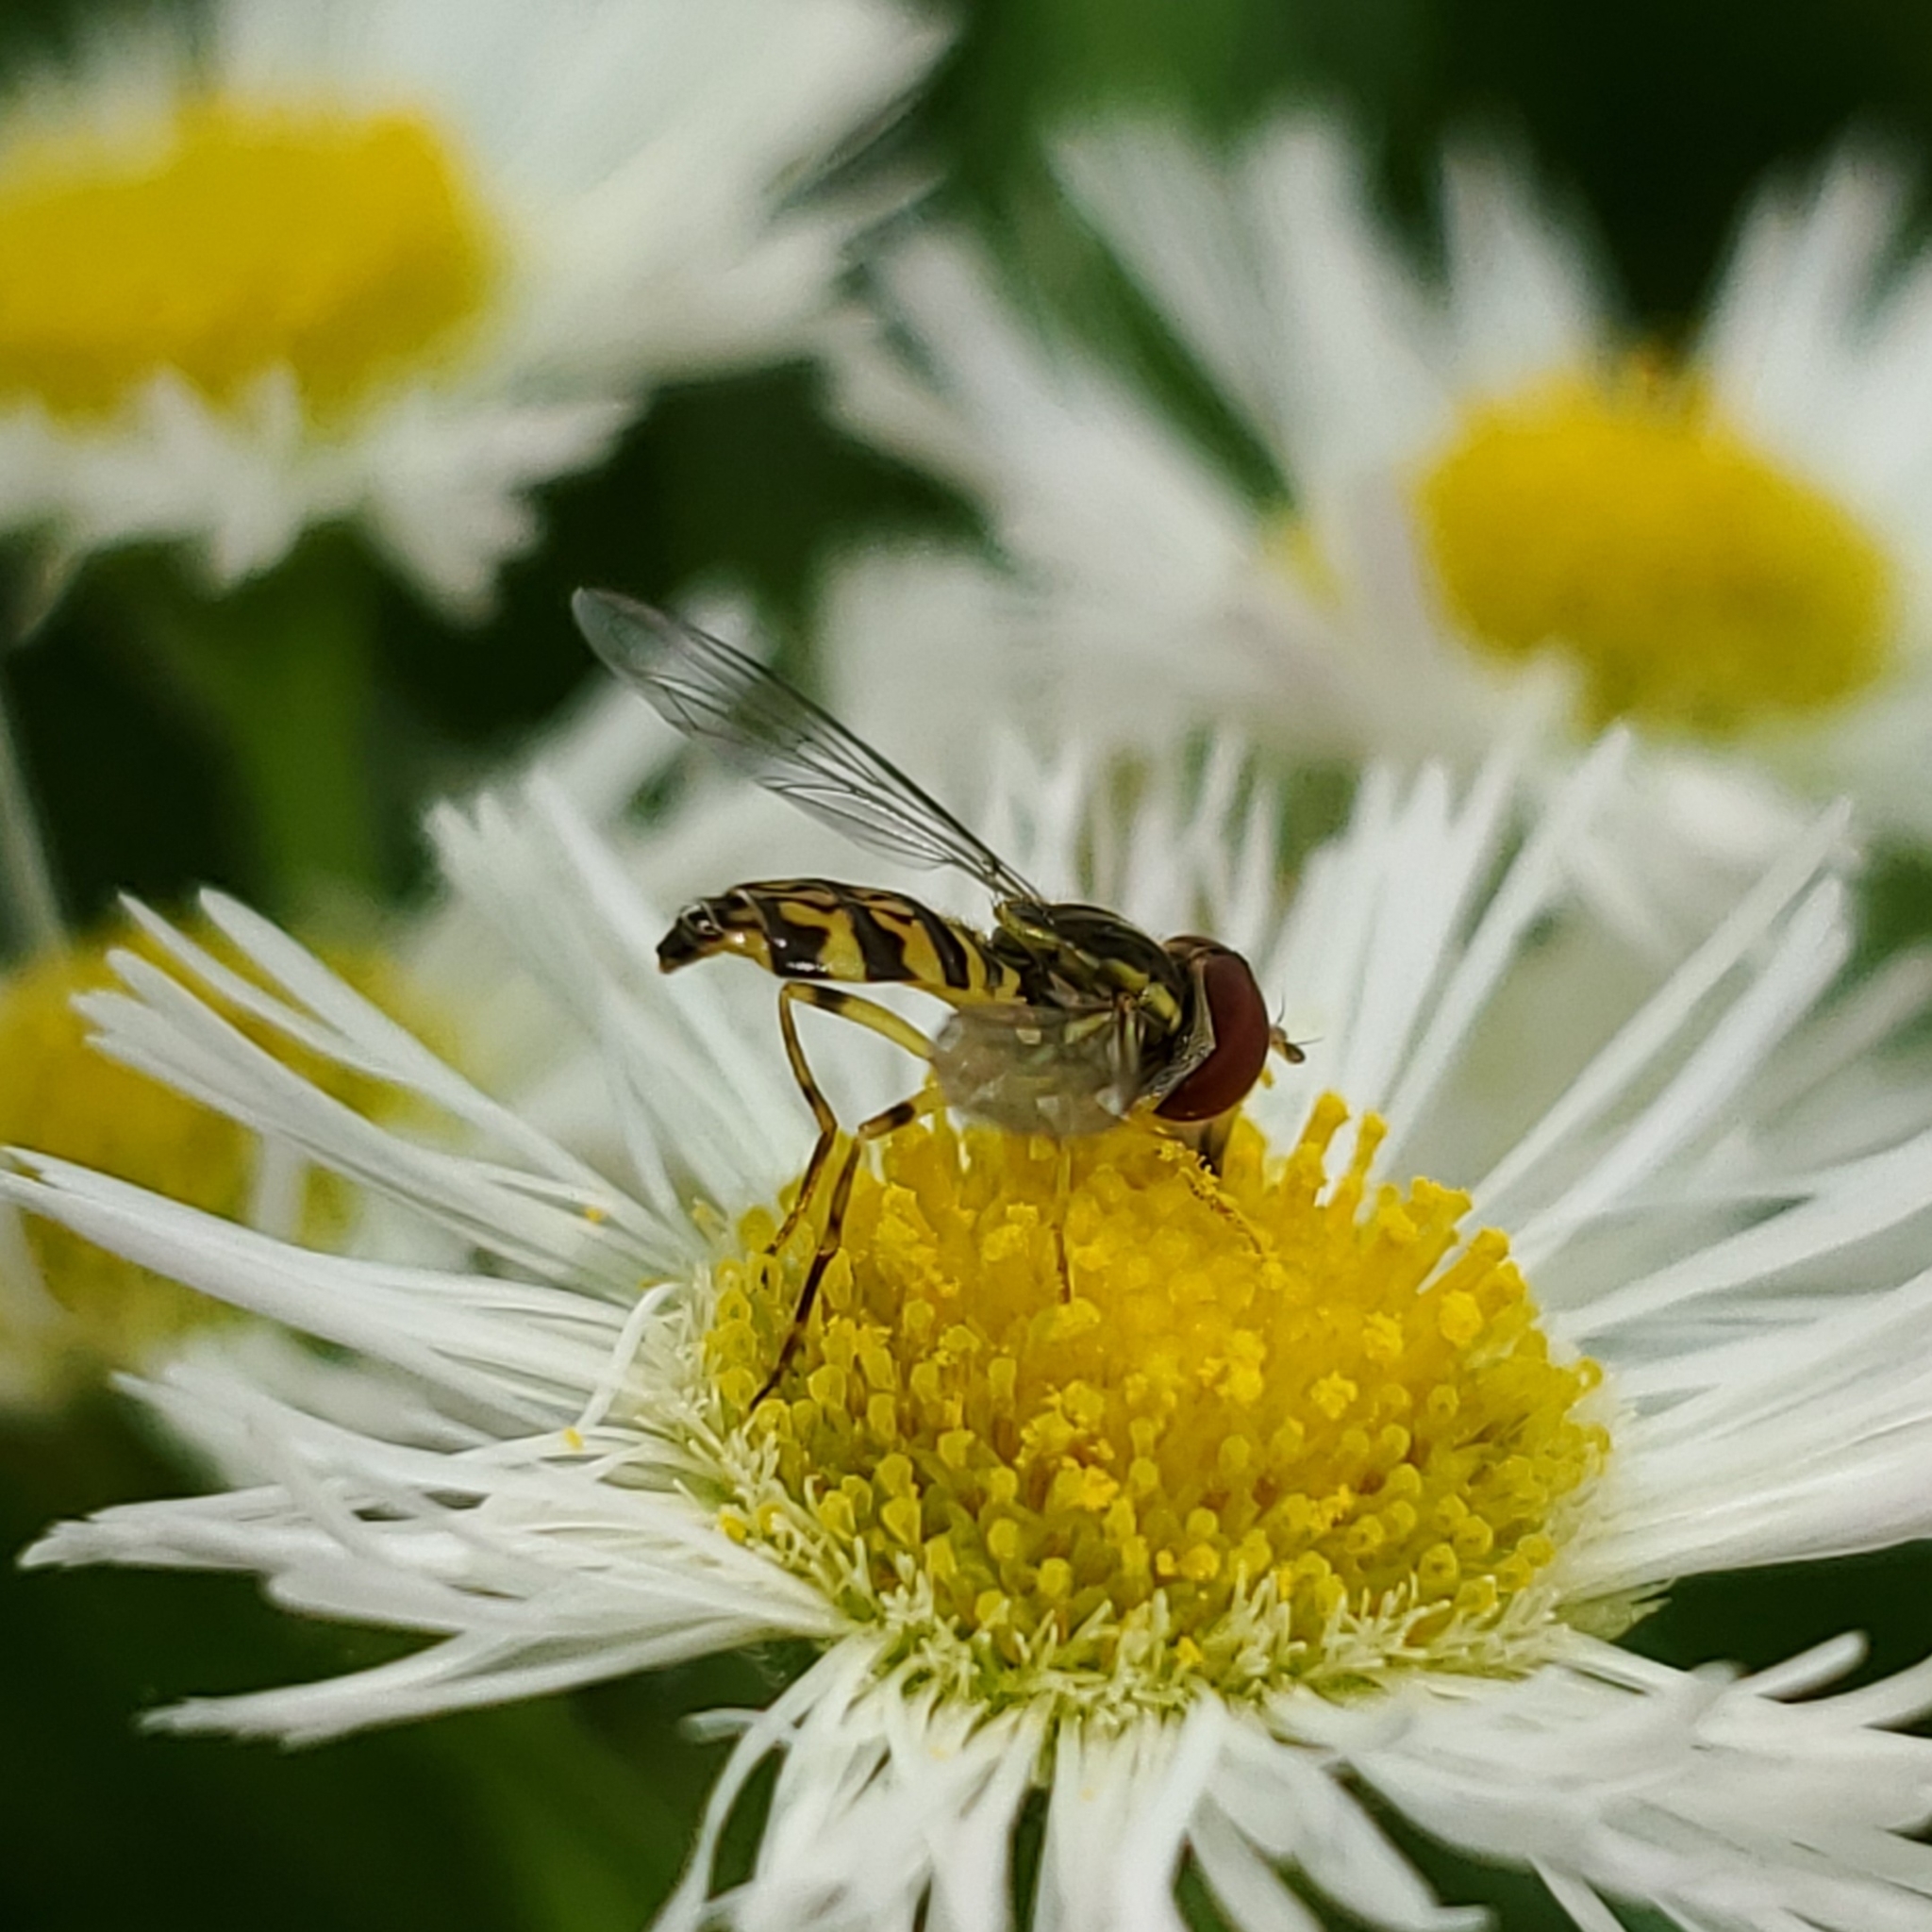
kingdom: Animalia
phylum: Arthropoda
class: Insecta
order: Diptera
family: Syrphidae
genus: Toxomerus
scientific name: Toxomerus geminatus
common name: Eastern calligrapher
